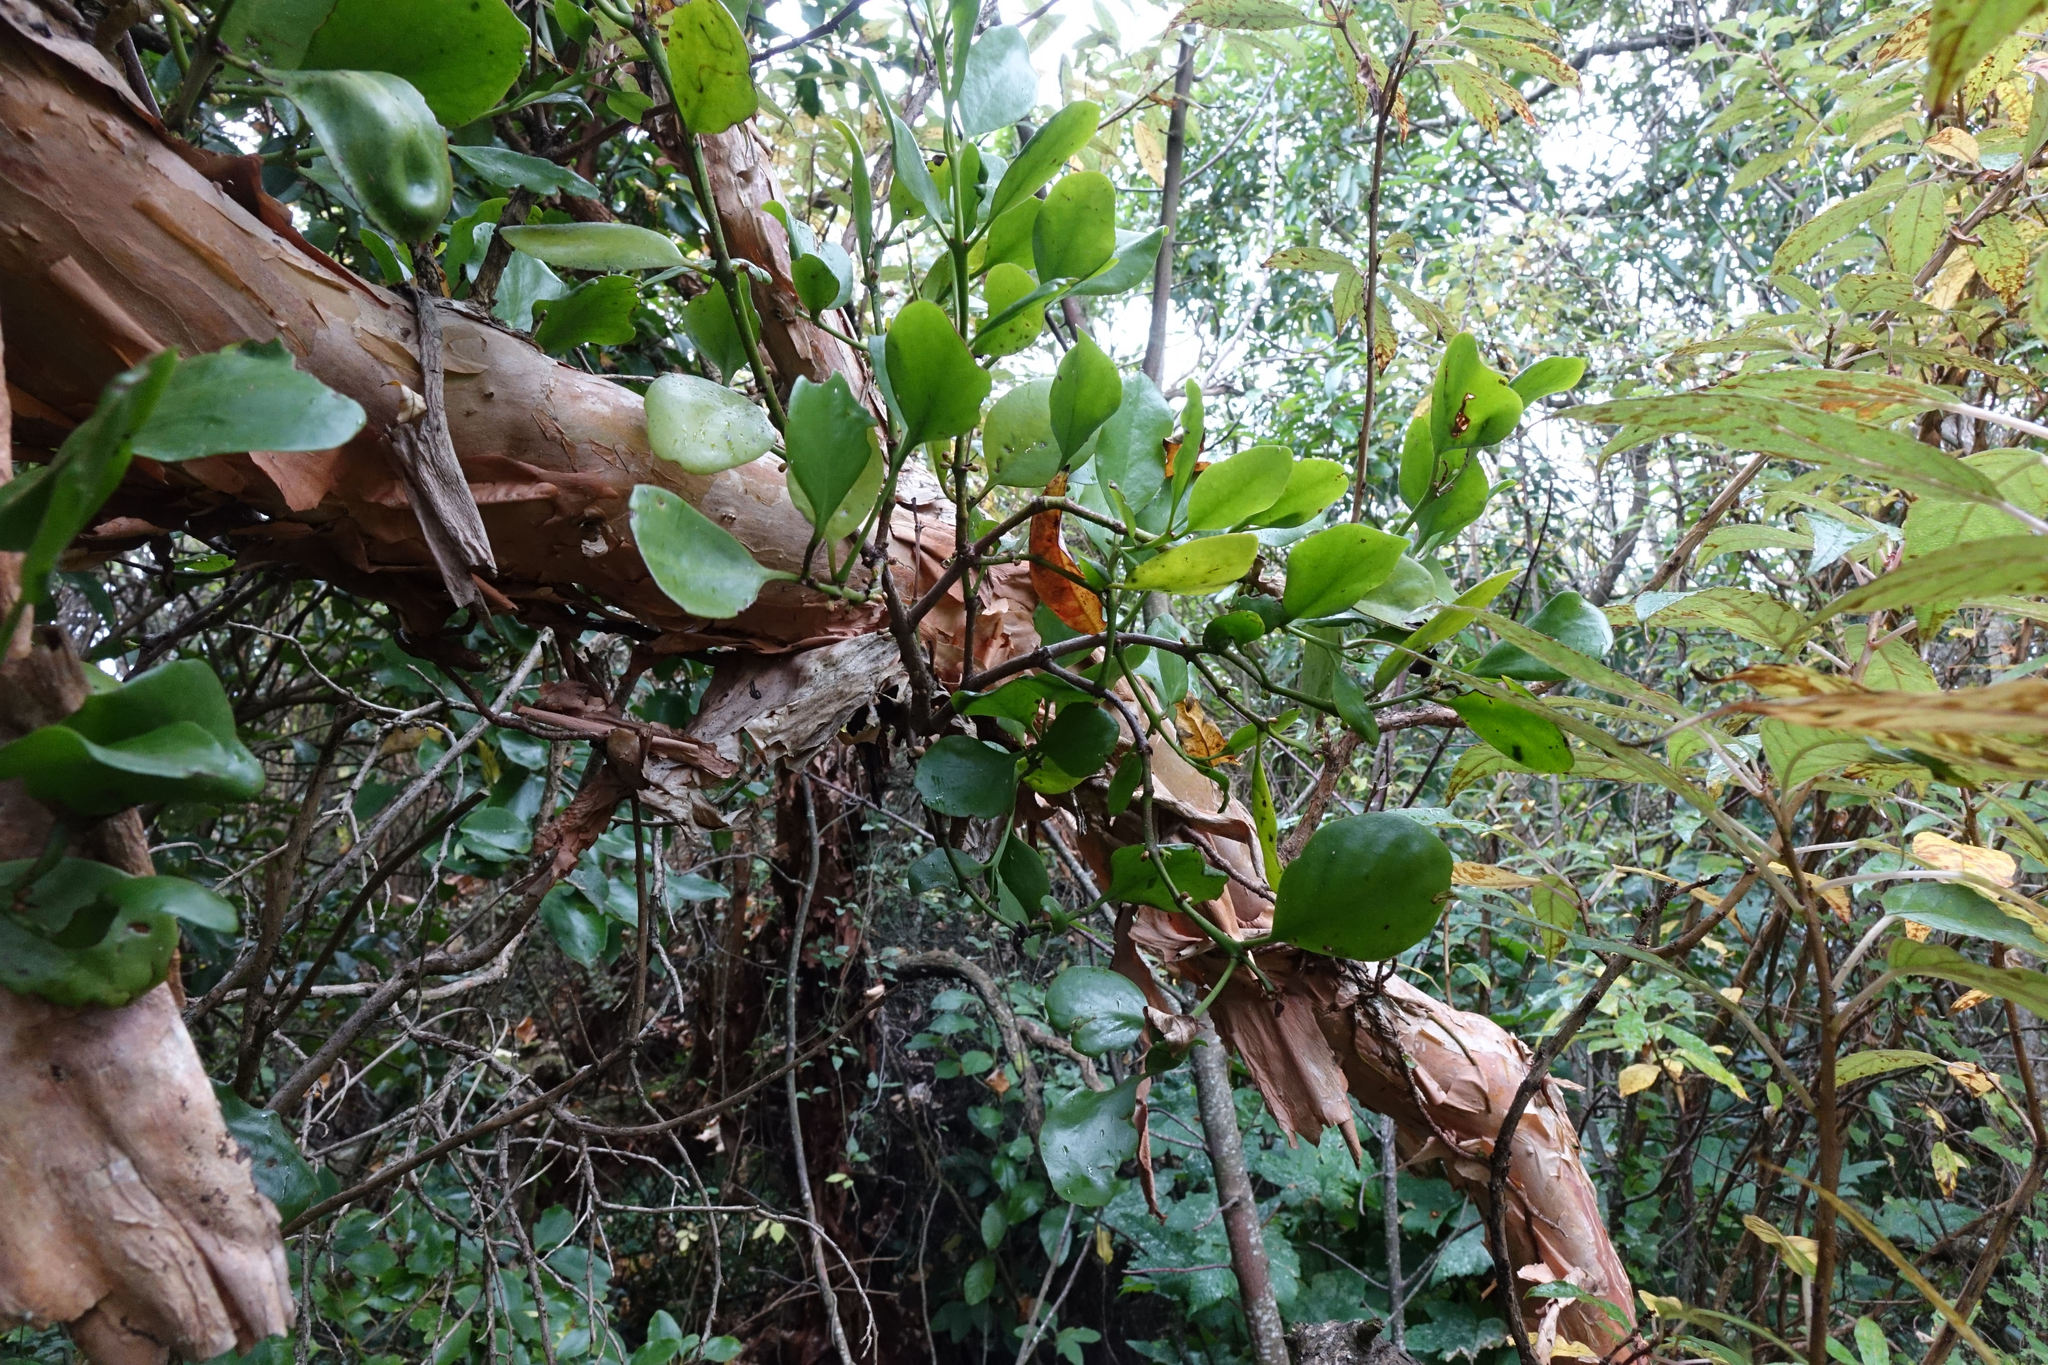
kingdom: Plantae
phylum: Tracheophyta
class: Magnoliopsida
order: Santalales
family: Loranthaceae
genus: Ileostylus
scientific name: Ileostylus micranthus
